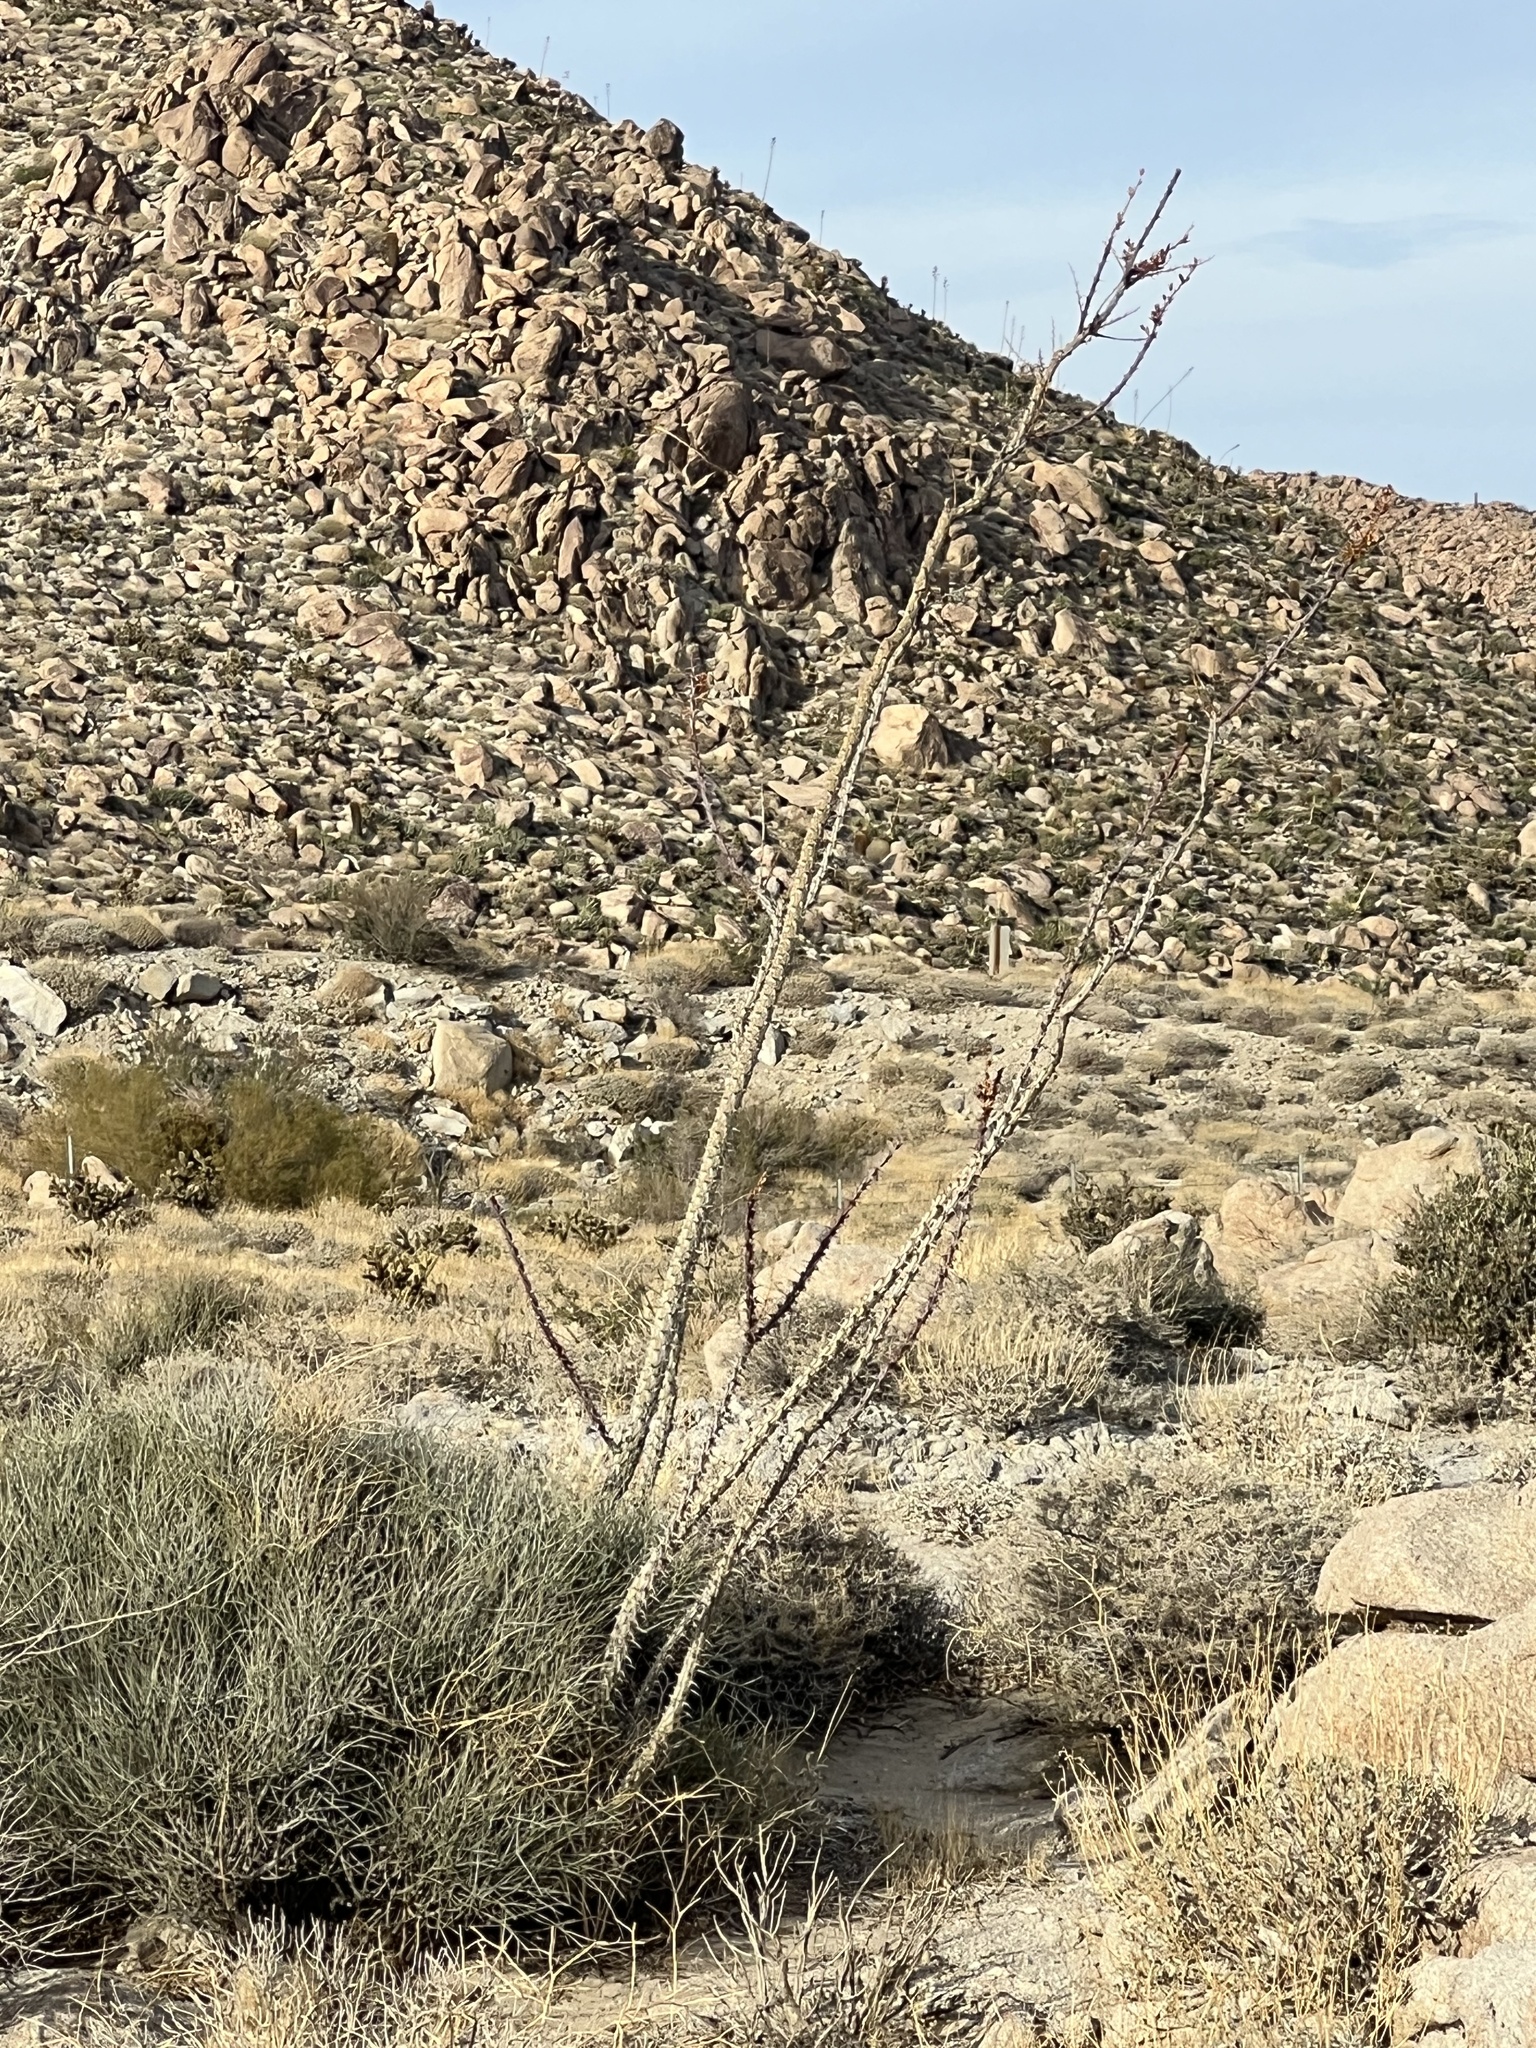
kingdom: Plantae
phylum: Tracheophyta
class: Magnoliopsida
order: Ericales
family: Fouquieriaceae
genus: Fouquieria
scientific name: Fouquieria splendens
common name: Vine-cactus
